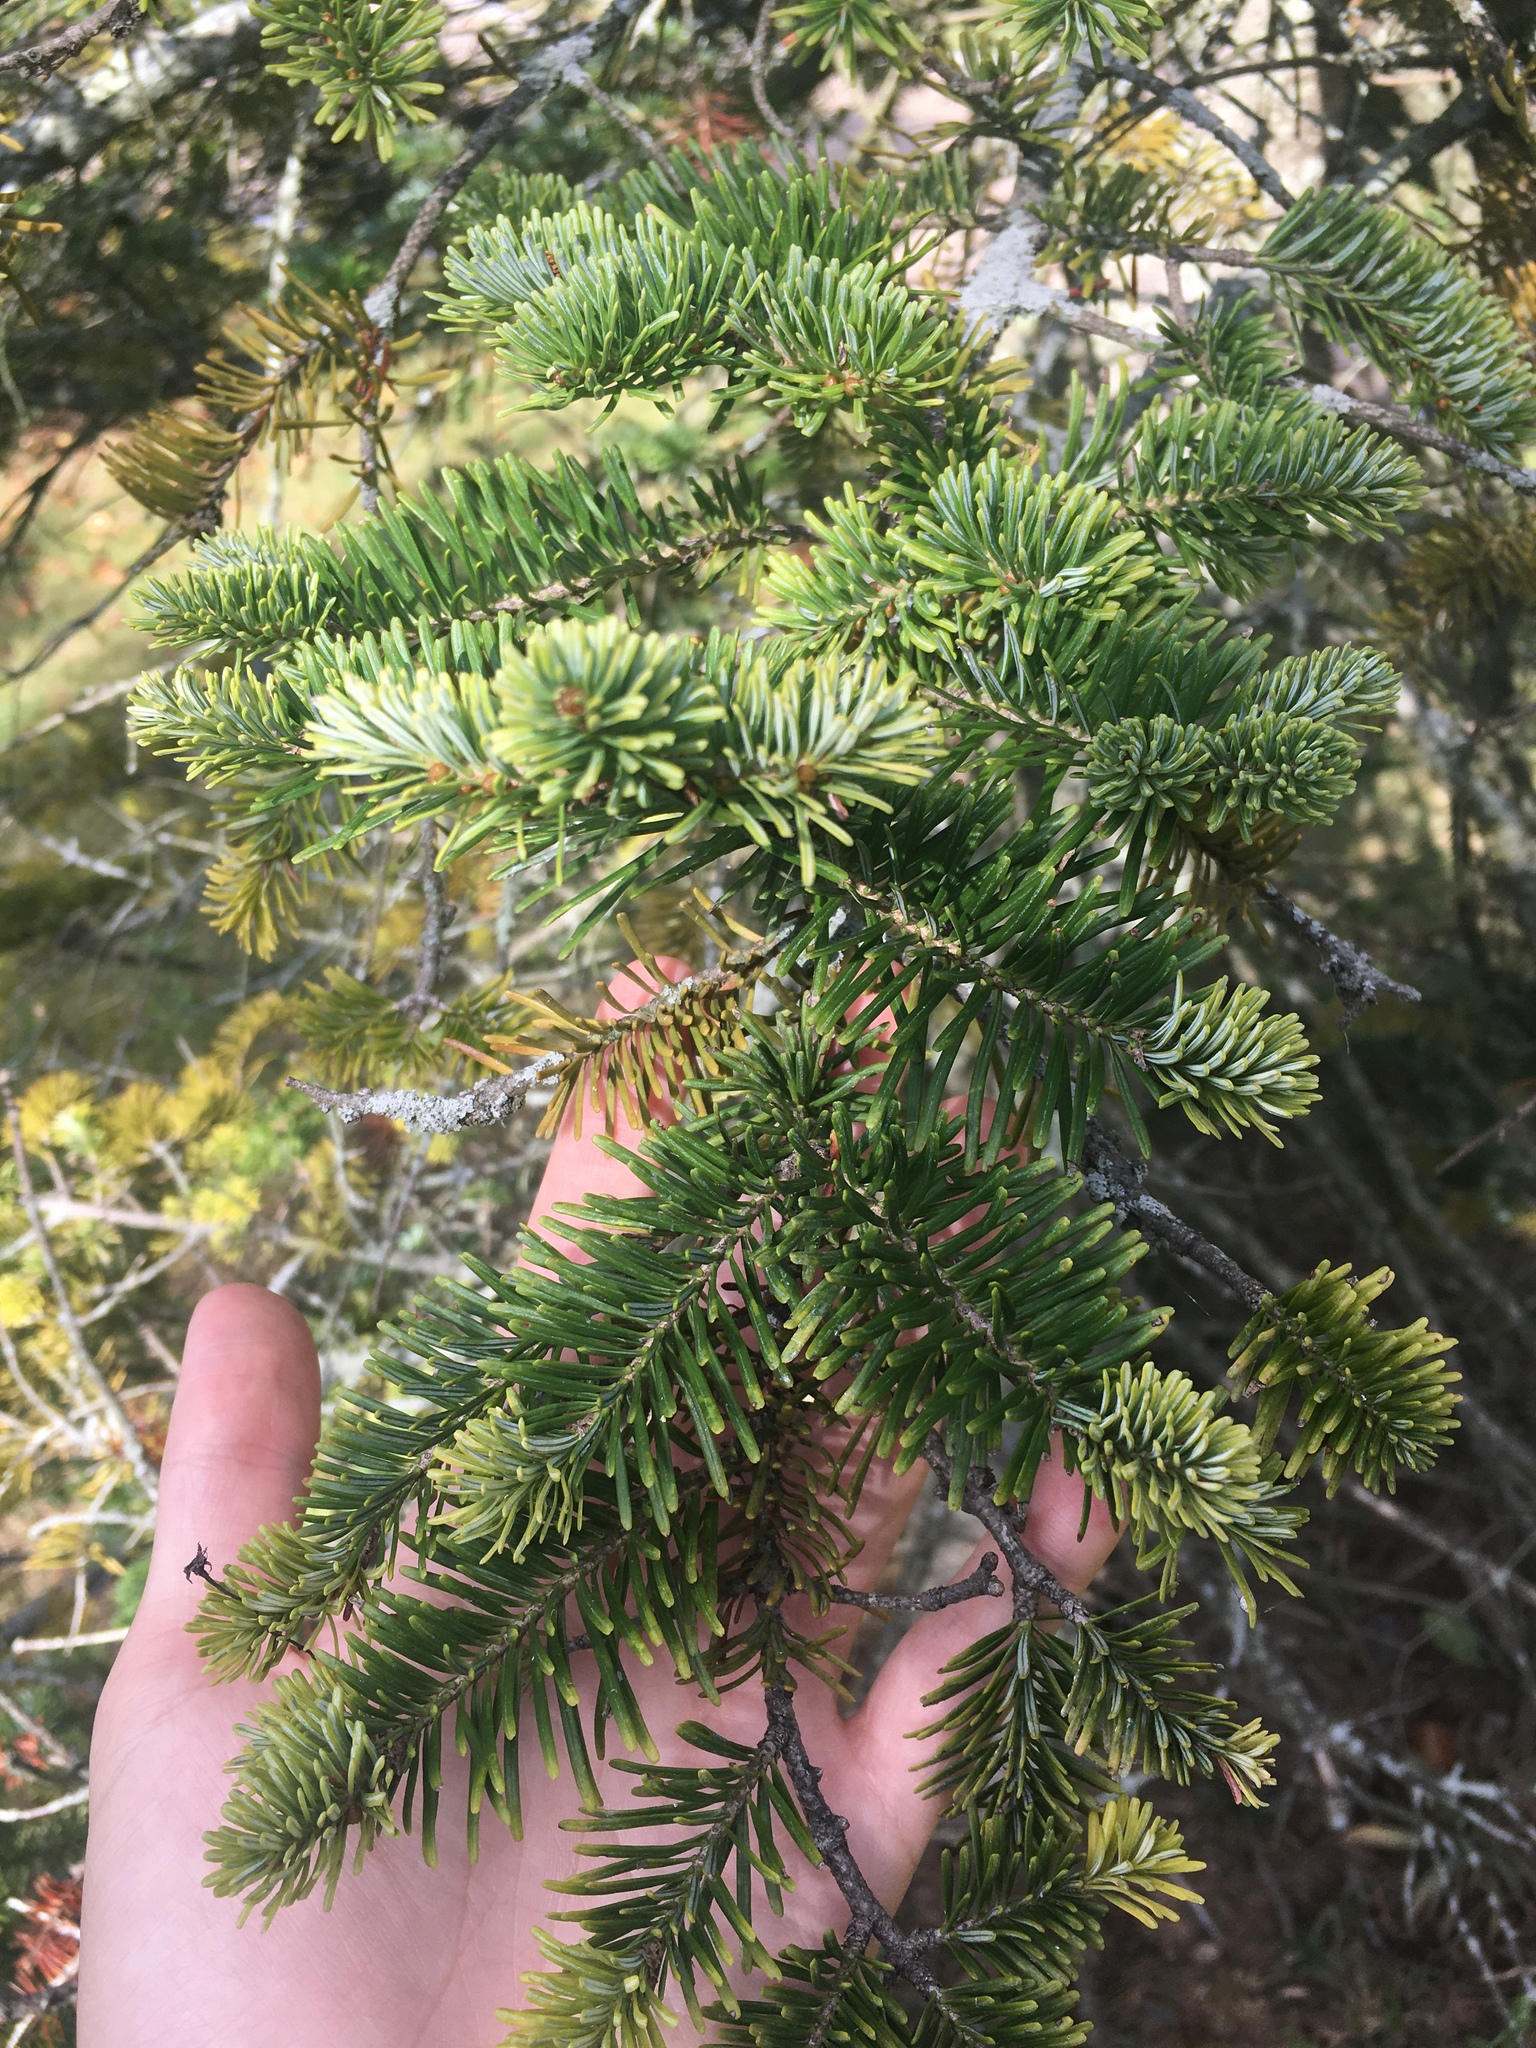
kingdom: Plantae
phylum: Tracheophyta
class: Pinopsida
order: Pinales
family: Pinaceae
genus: Abies
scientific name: Abies balsamea
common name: Balsam fir
